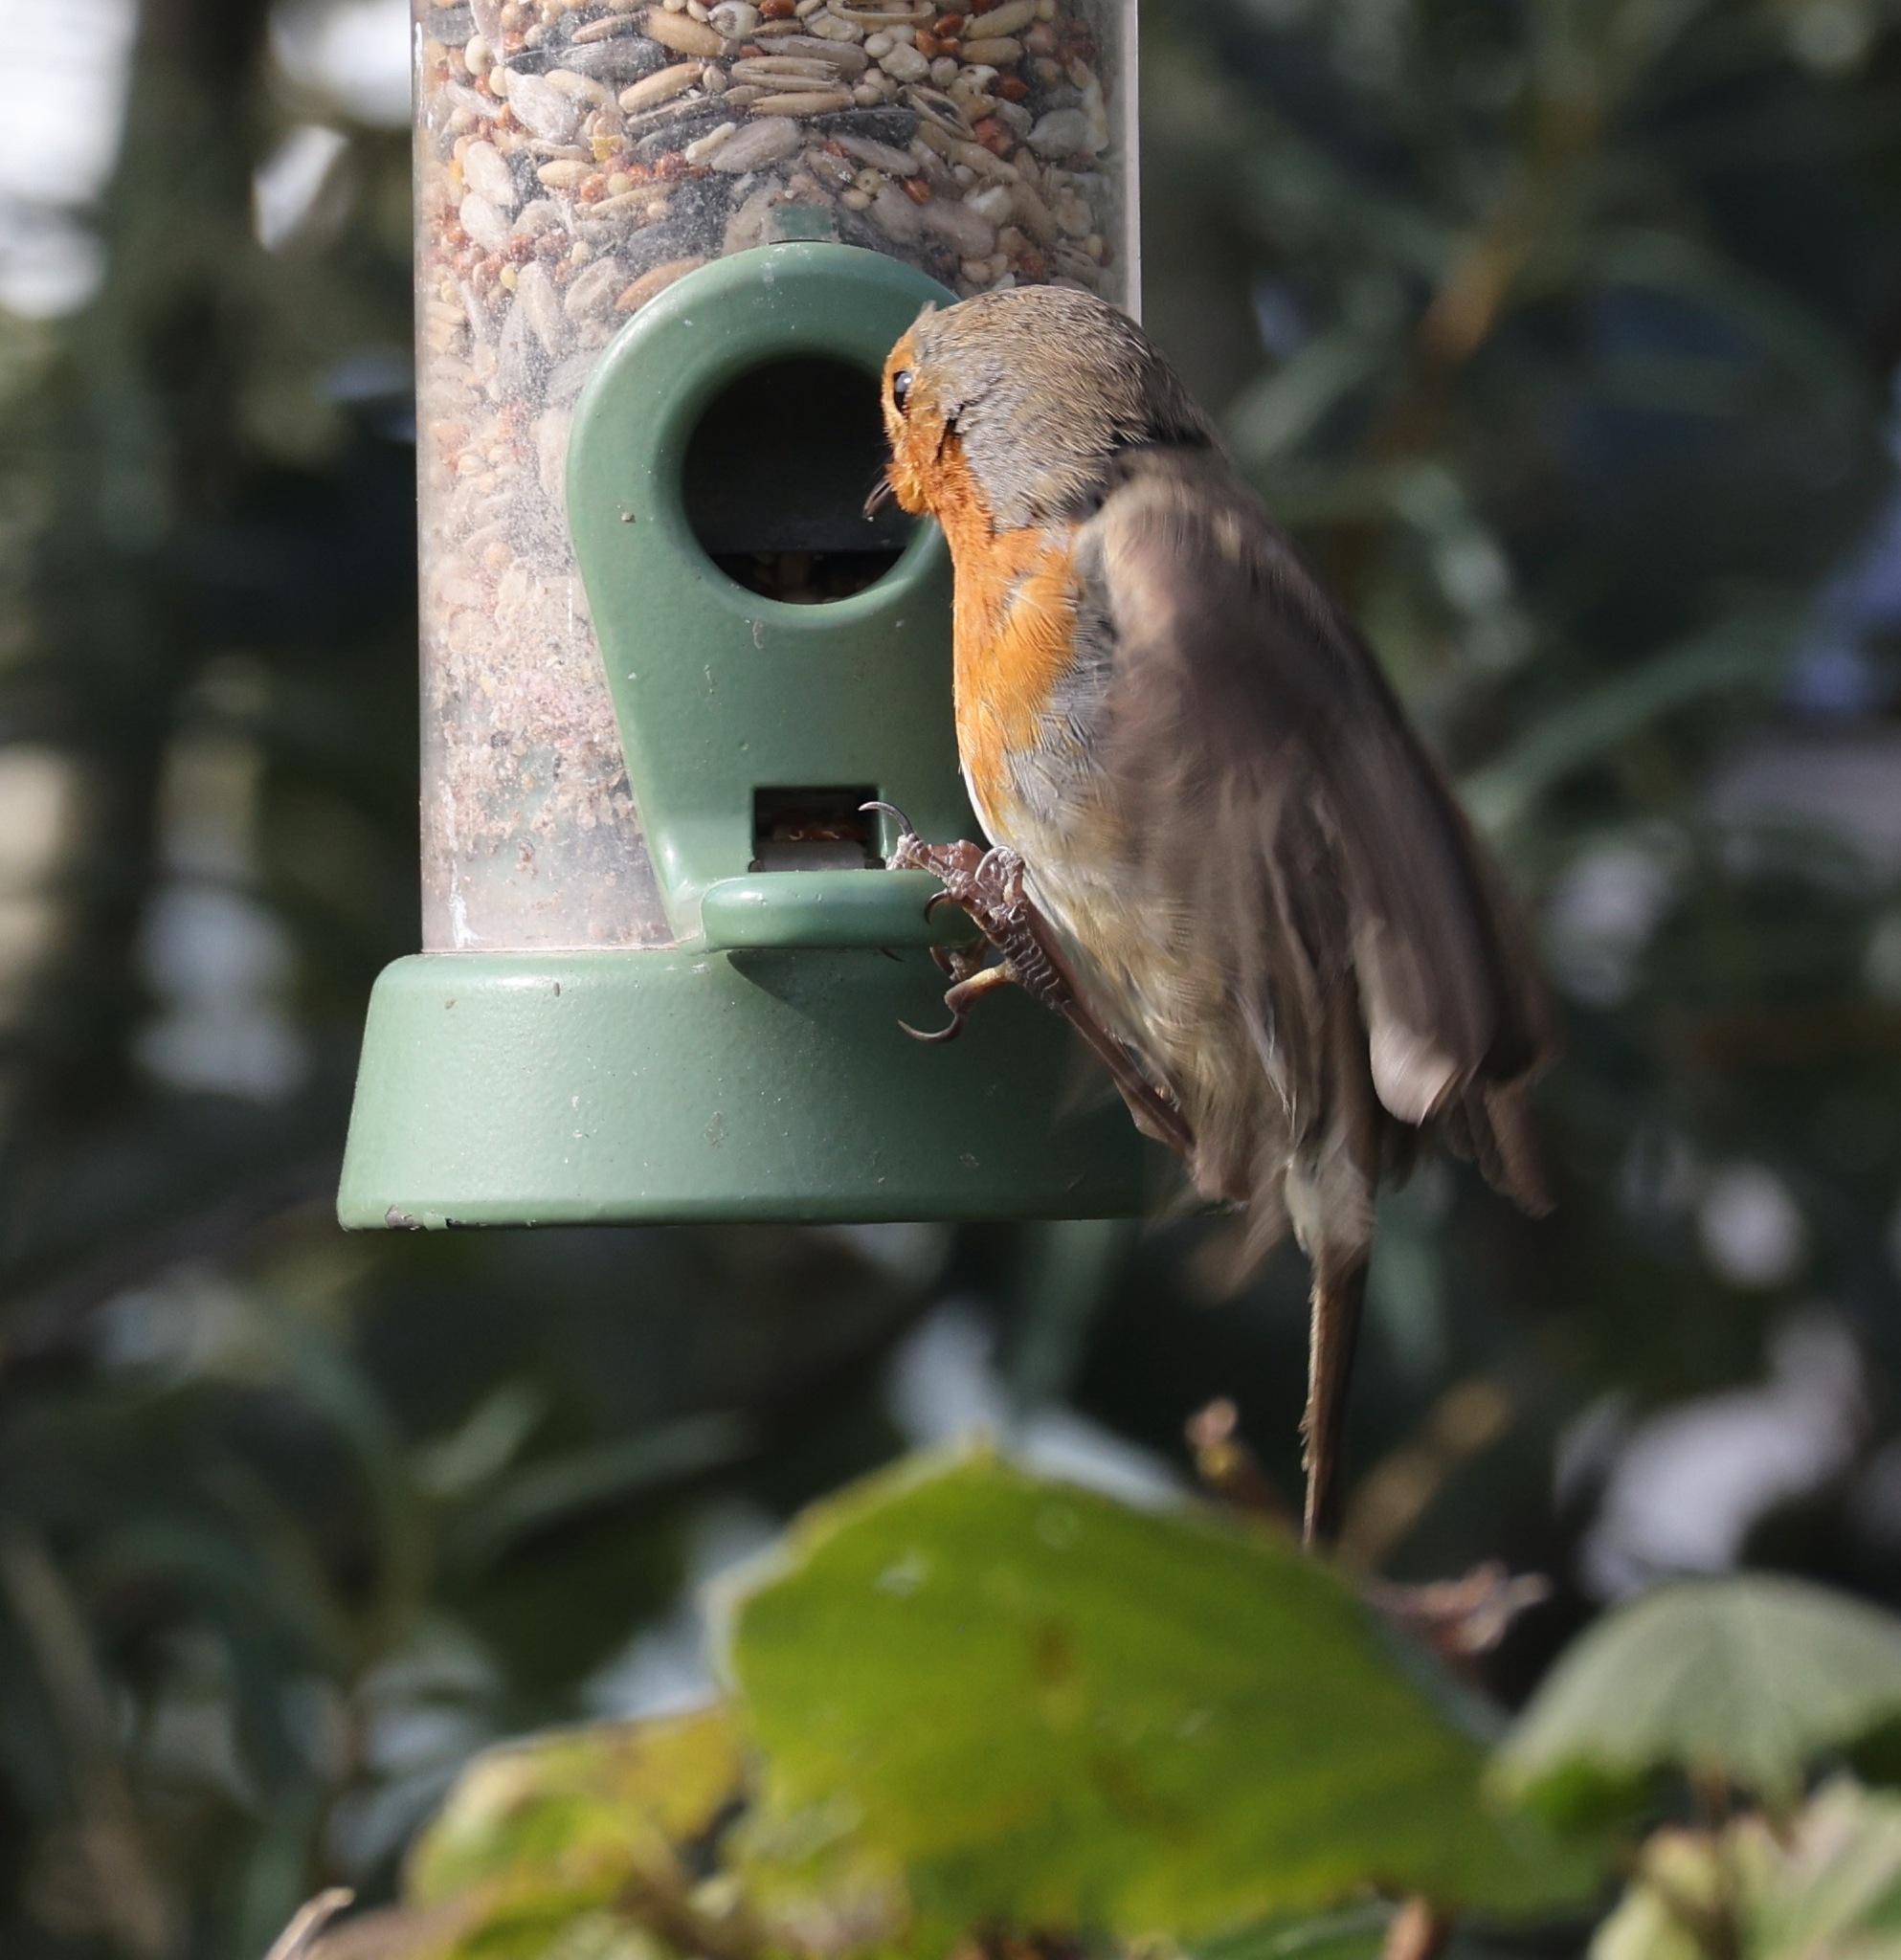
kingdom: Animalia
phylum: Chordata
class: Aves
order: Passeriformes
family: Muscicapidae
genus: Erithacus
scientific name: Erithacus rubecula
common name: European robin
